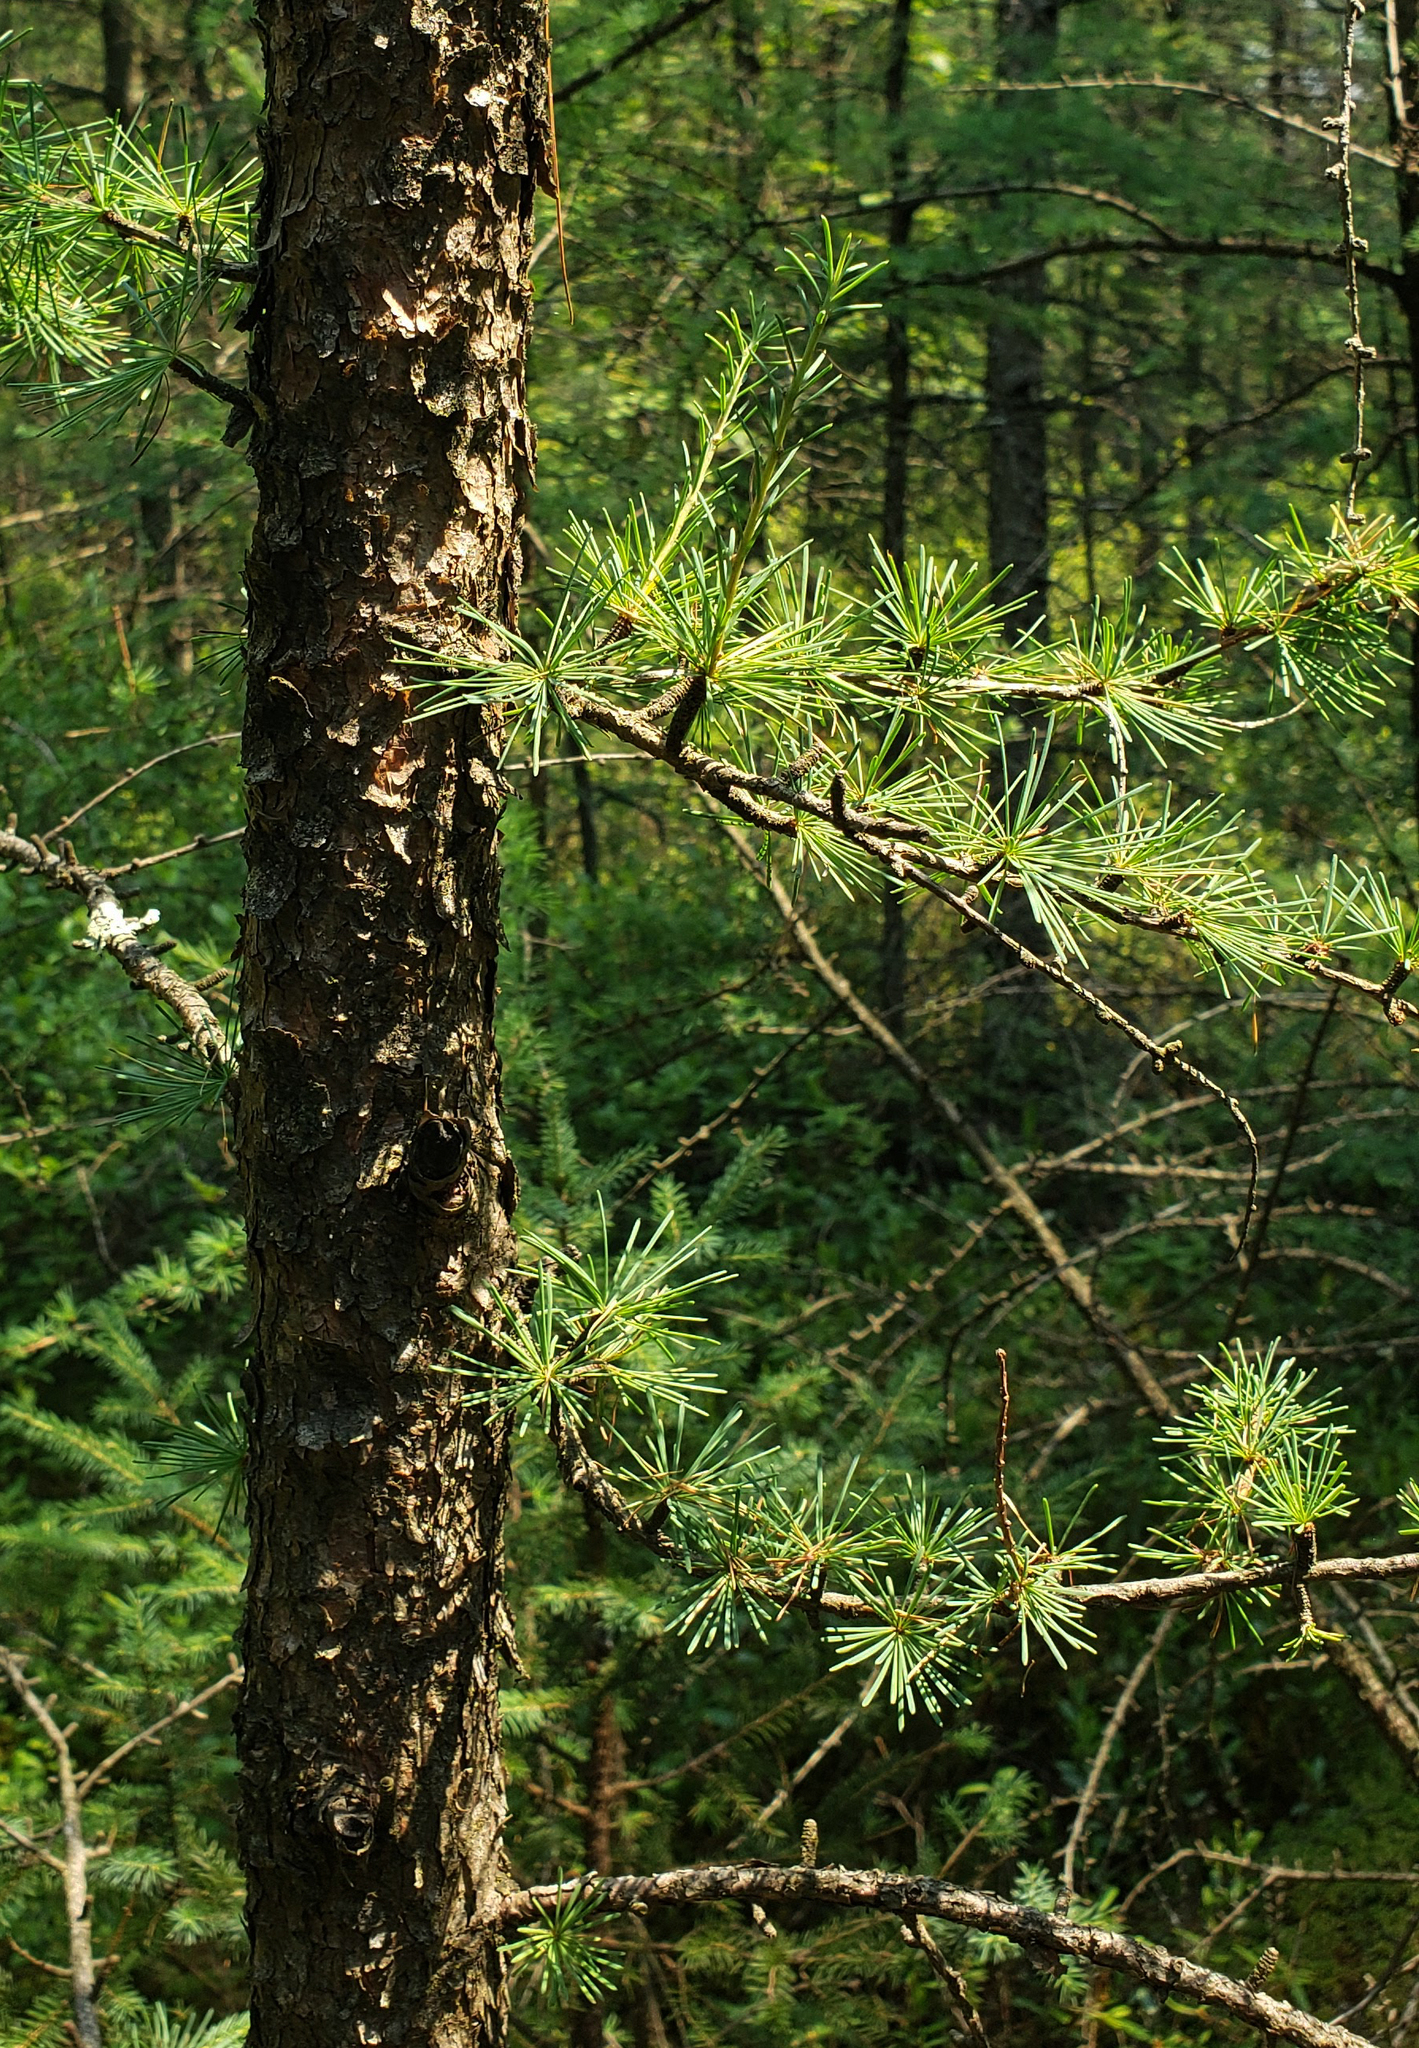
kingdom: Plantae
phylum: Tracheophyta
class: Pinopsida
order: Pinales
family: Pinaceae
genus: Larix
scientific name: Larix laricina
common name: American larch
